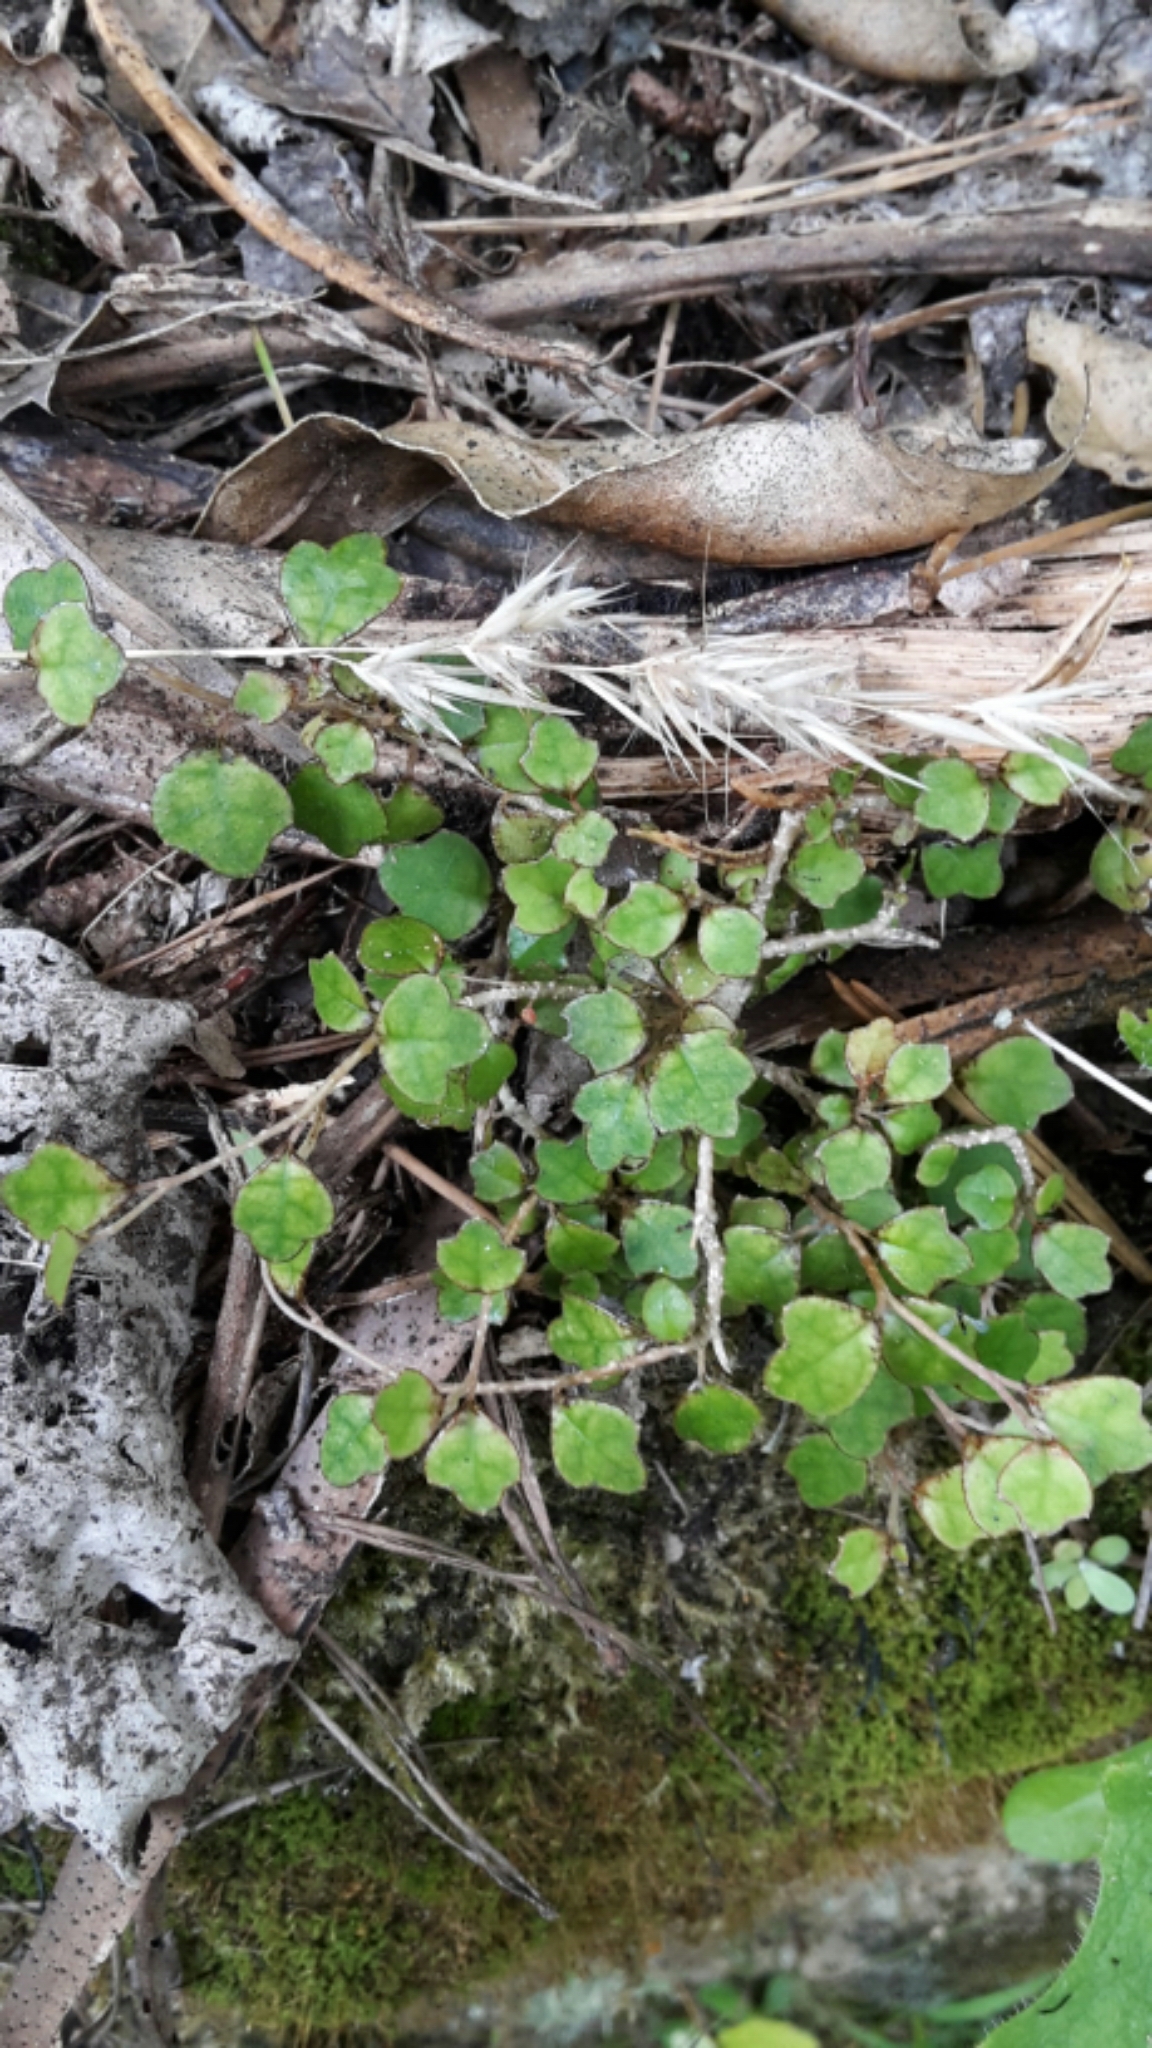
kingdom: Plantae
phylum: Tracheophyta
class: Magnoliopsida
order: Apiales
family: Pennantiaceae
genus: Pennantia
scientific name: Pennantia corymbosa
